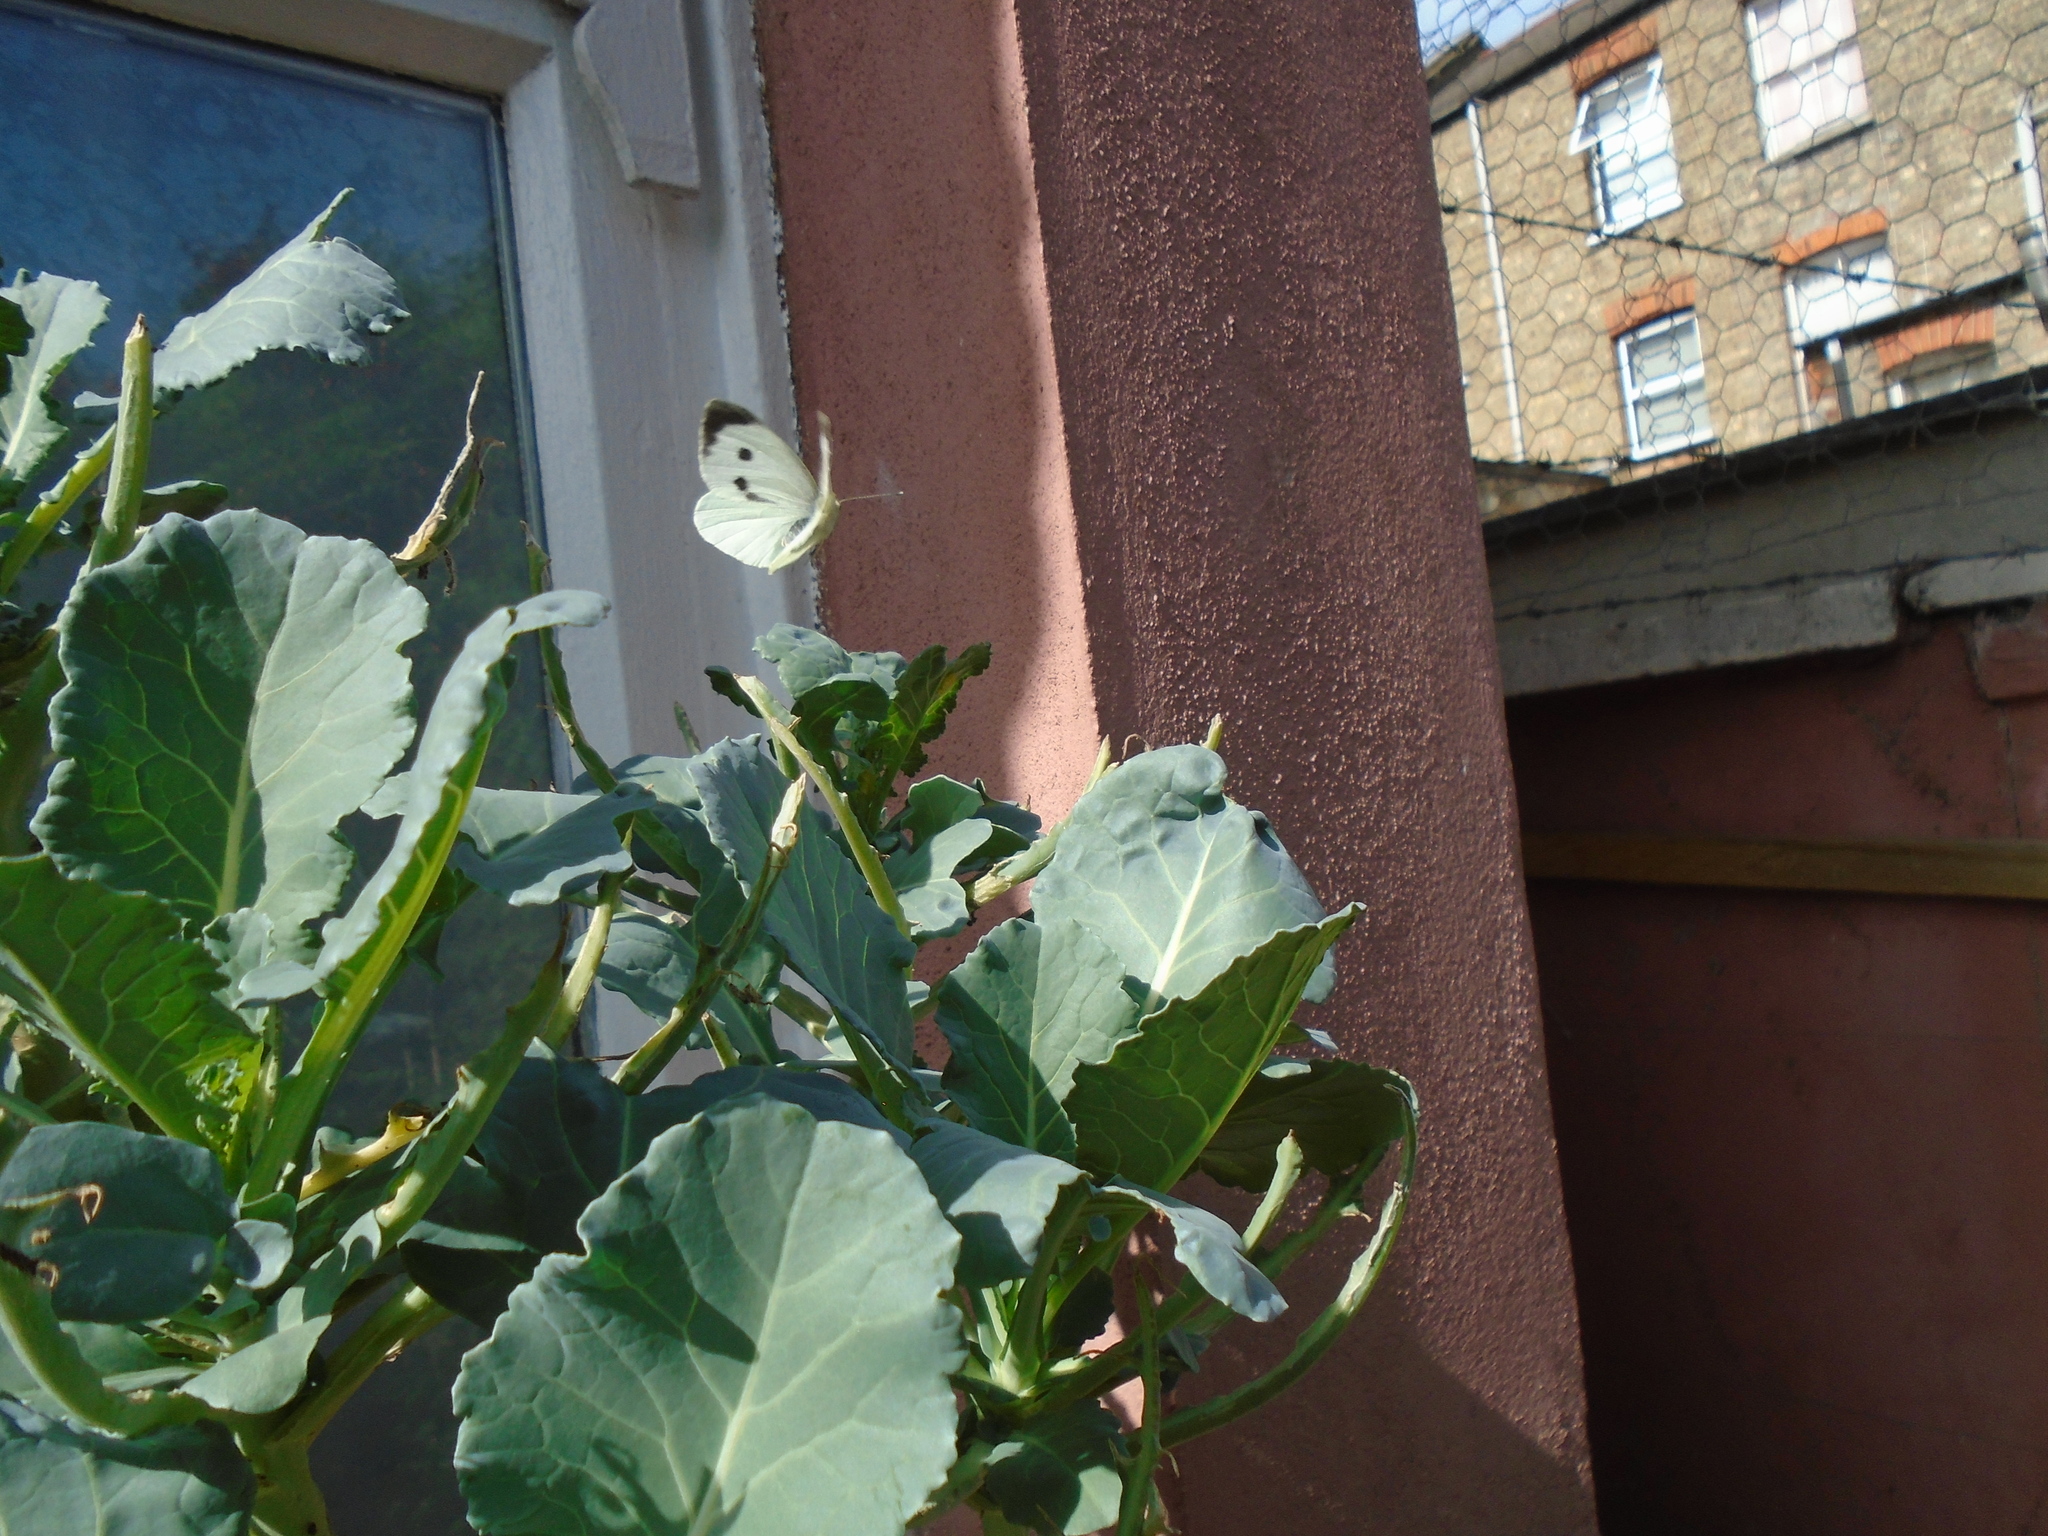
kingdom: Animalia
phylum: Arthropoda
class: Insecta
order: Lepidoptera
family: Pieridae
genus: Pieris
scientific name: Pieris brassicae
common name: Large white
